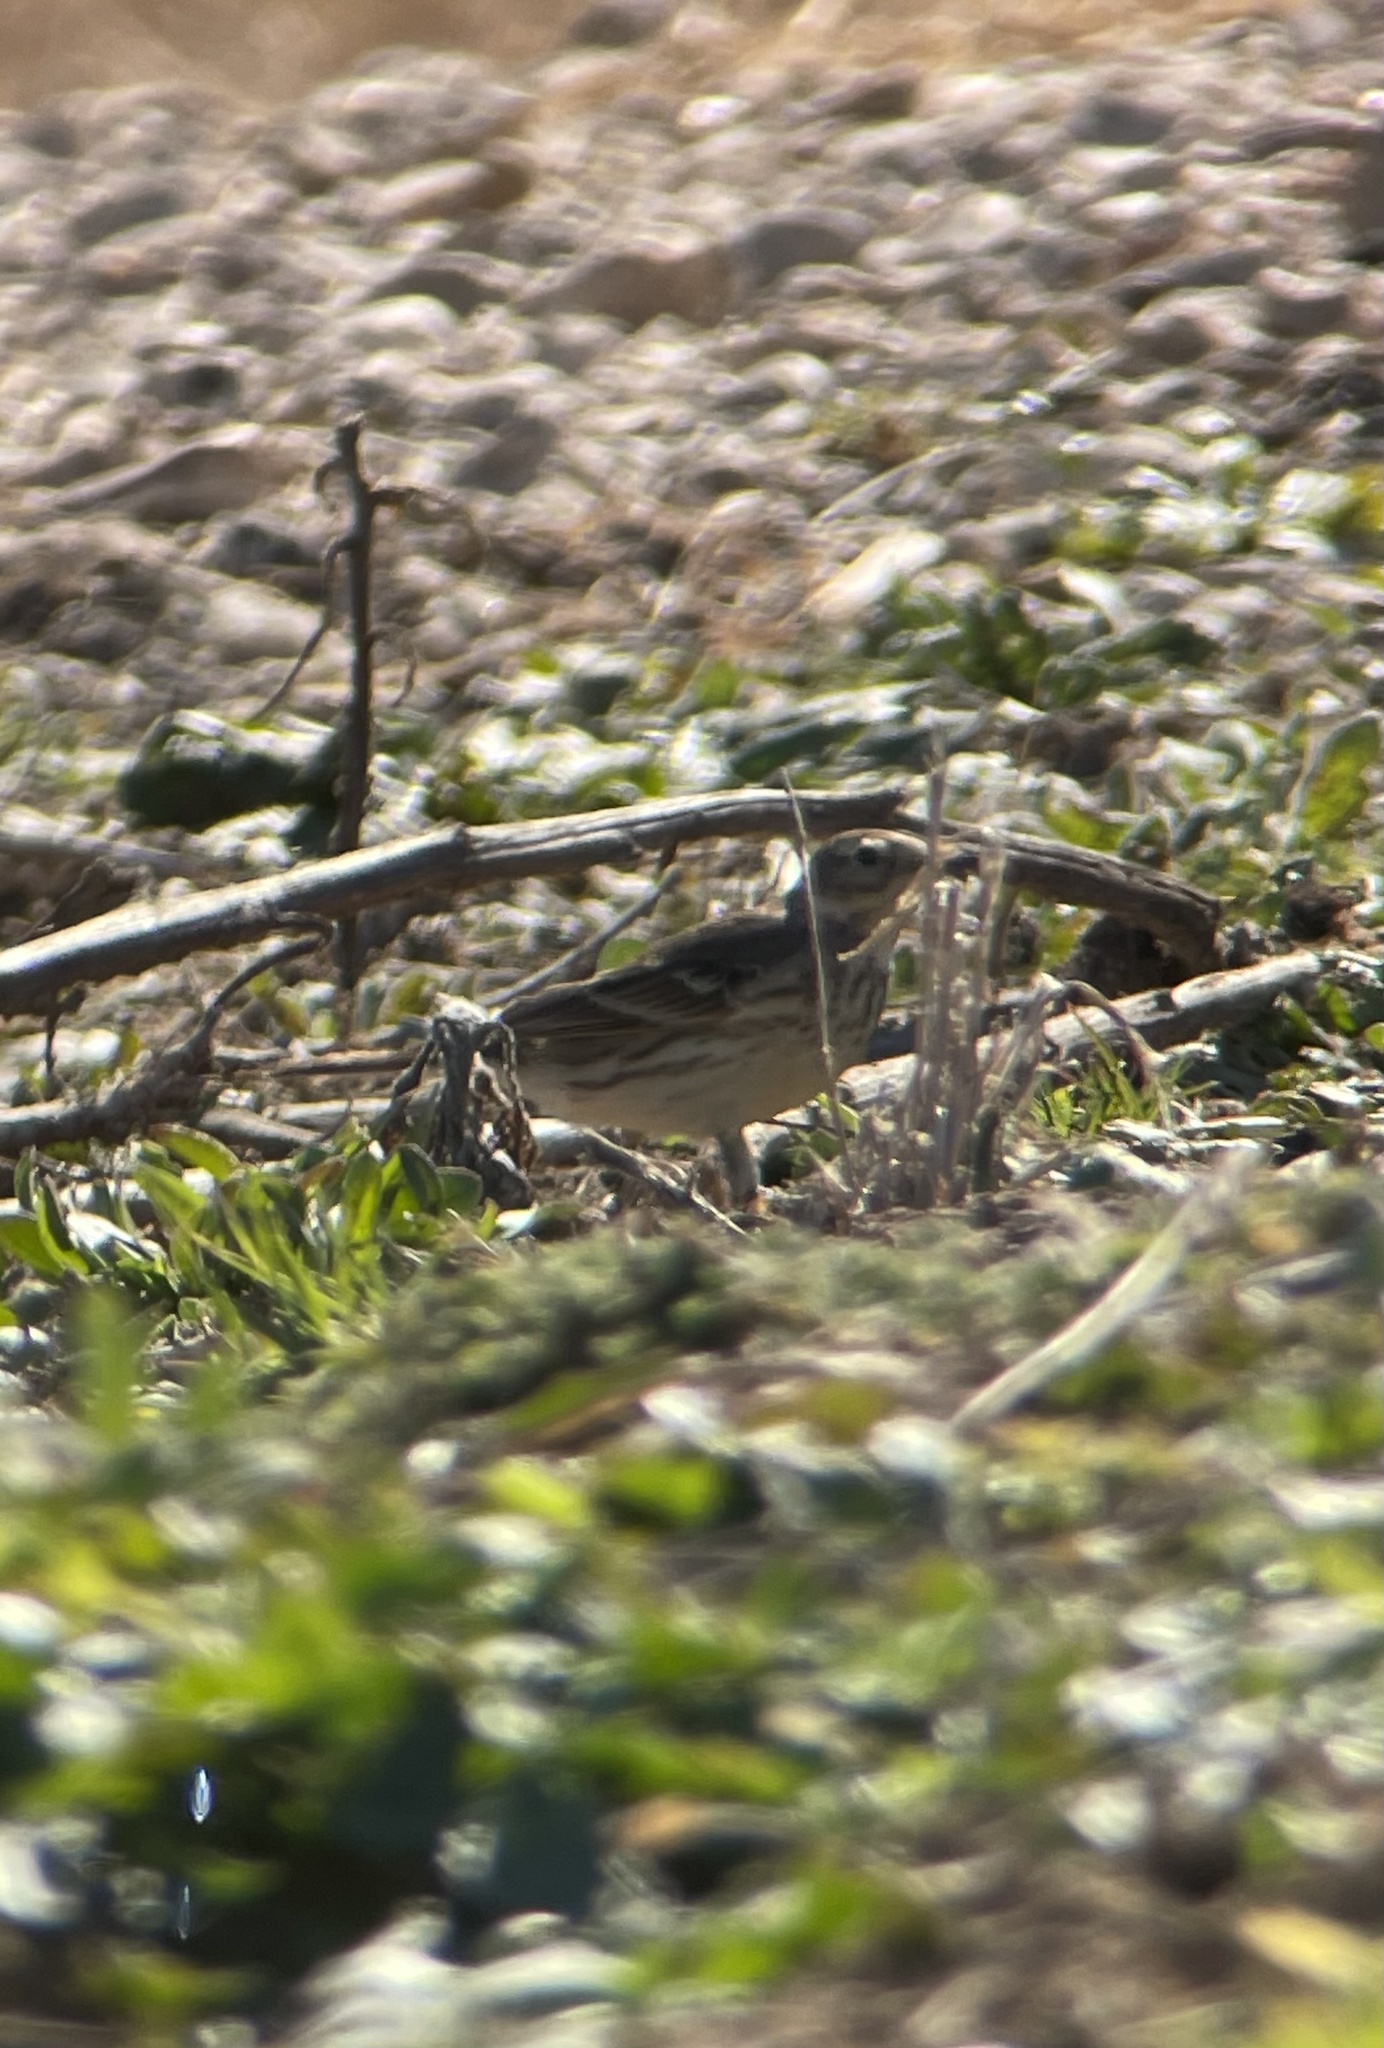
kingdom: Animalia
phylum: Chordata
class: Aves
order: Passeriformes
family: Motacillidae
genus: Anthus
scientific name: Anthus rubescens
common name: Buff-bellied pipit
